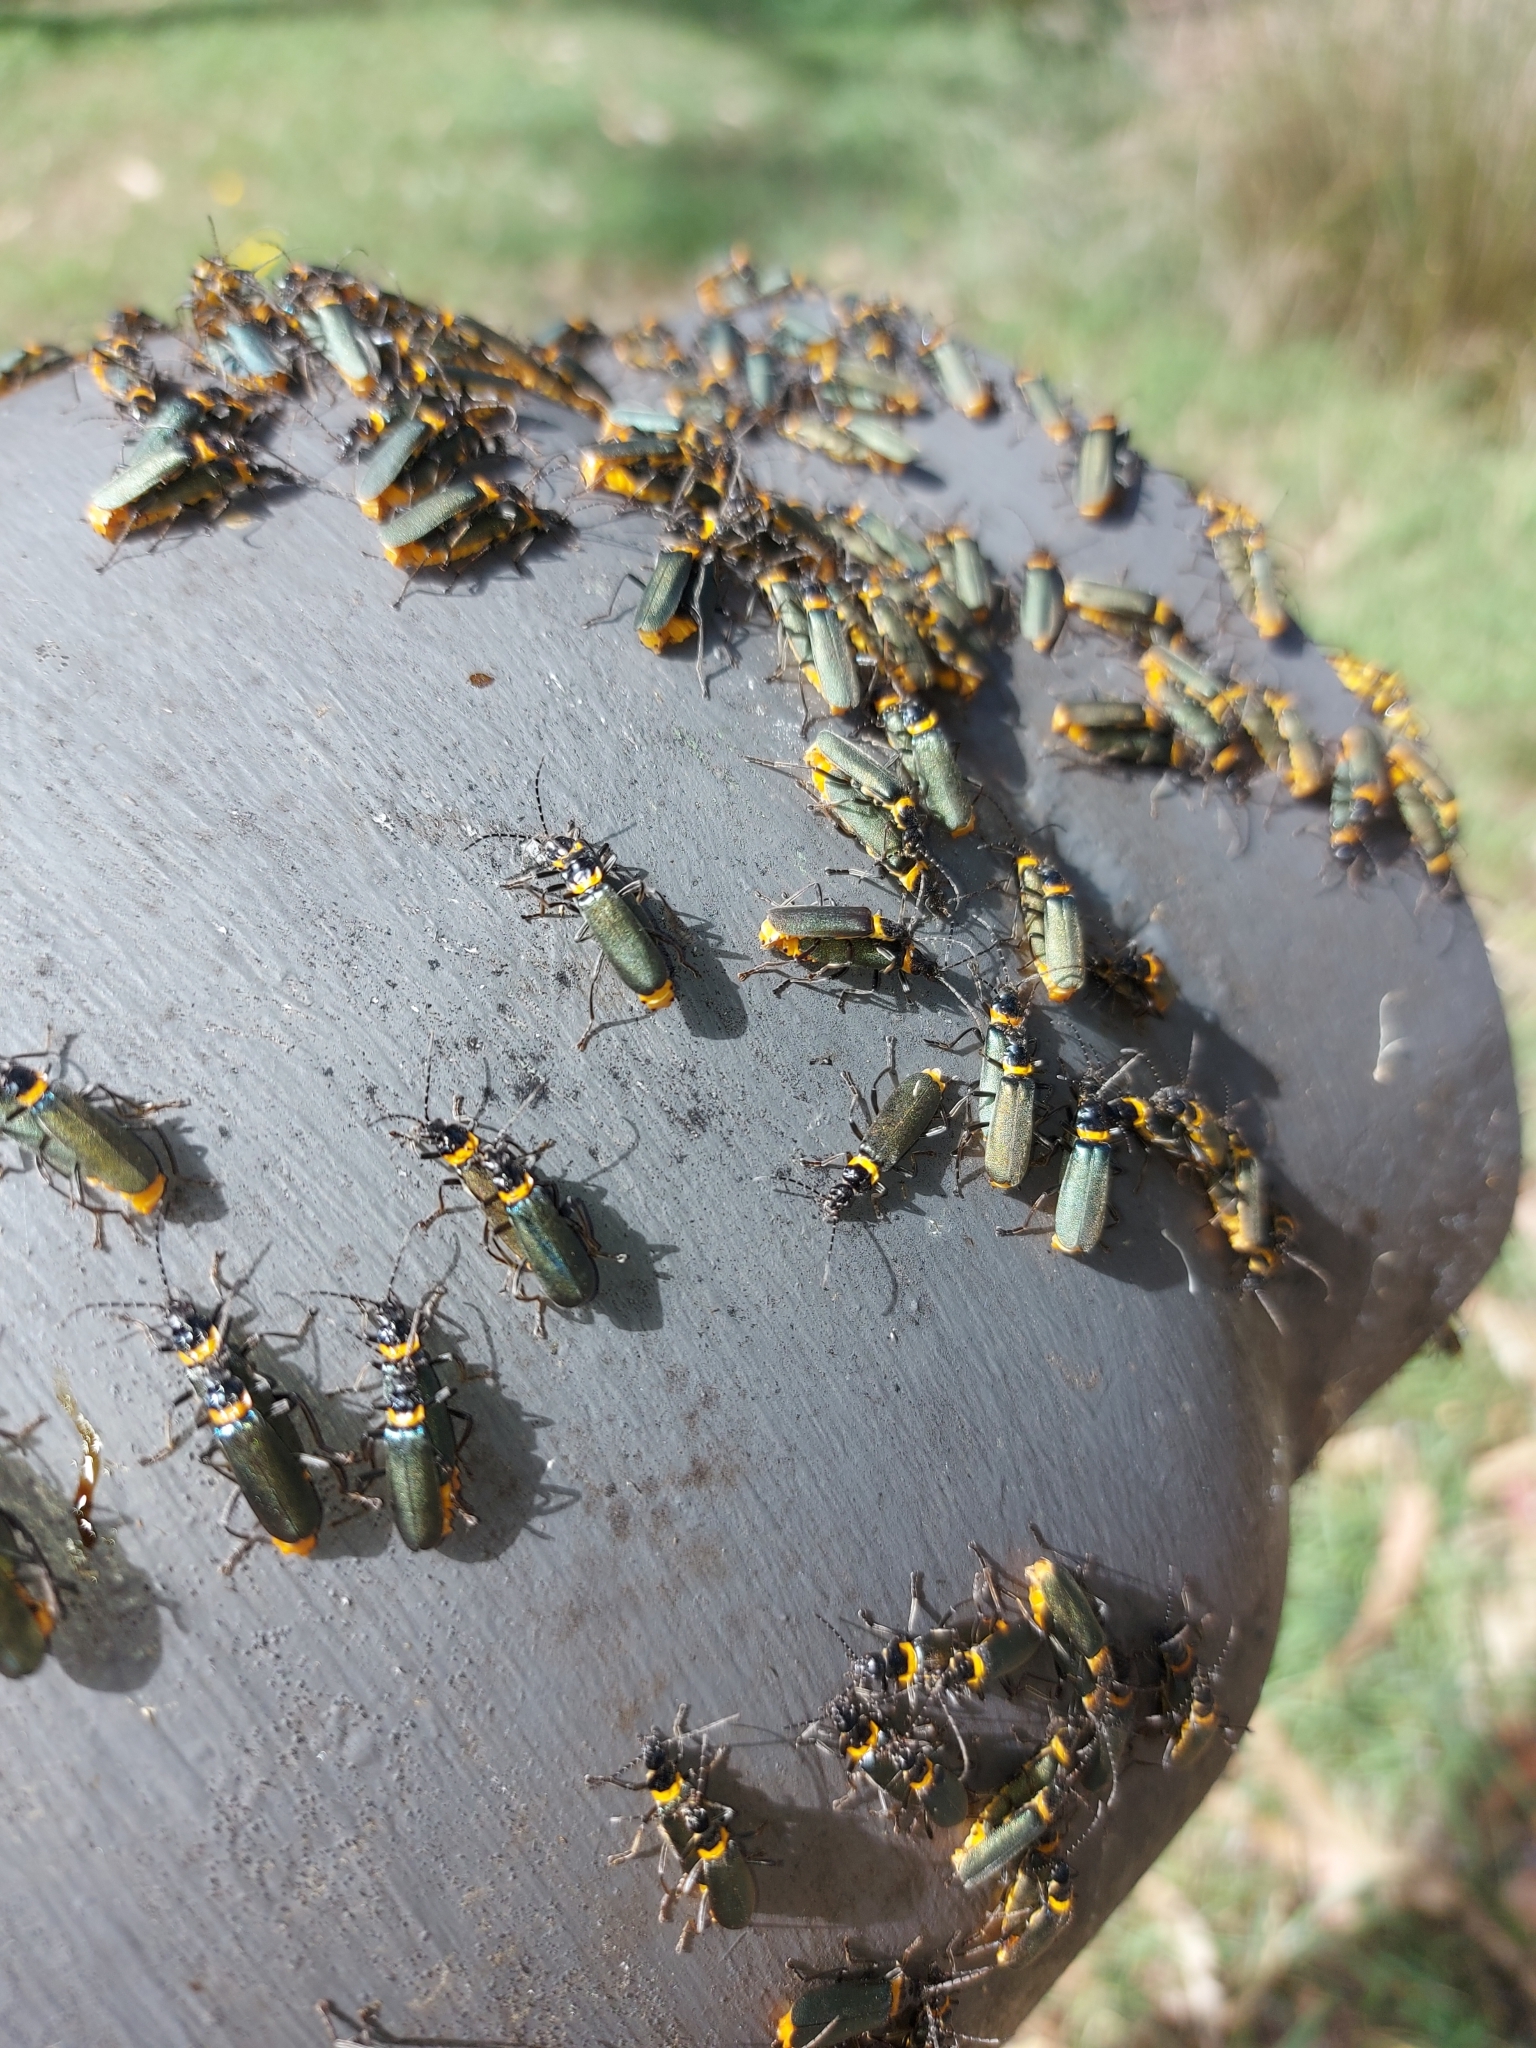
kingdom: Animalia
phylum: Arthropoda
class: Insecta
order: Coleoptera
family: Cantharidae
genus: Chauliognathus
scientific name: Chauliognathus
